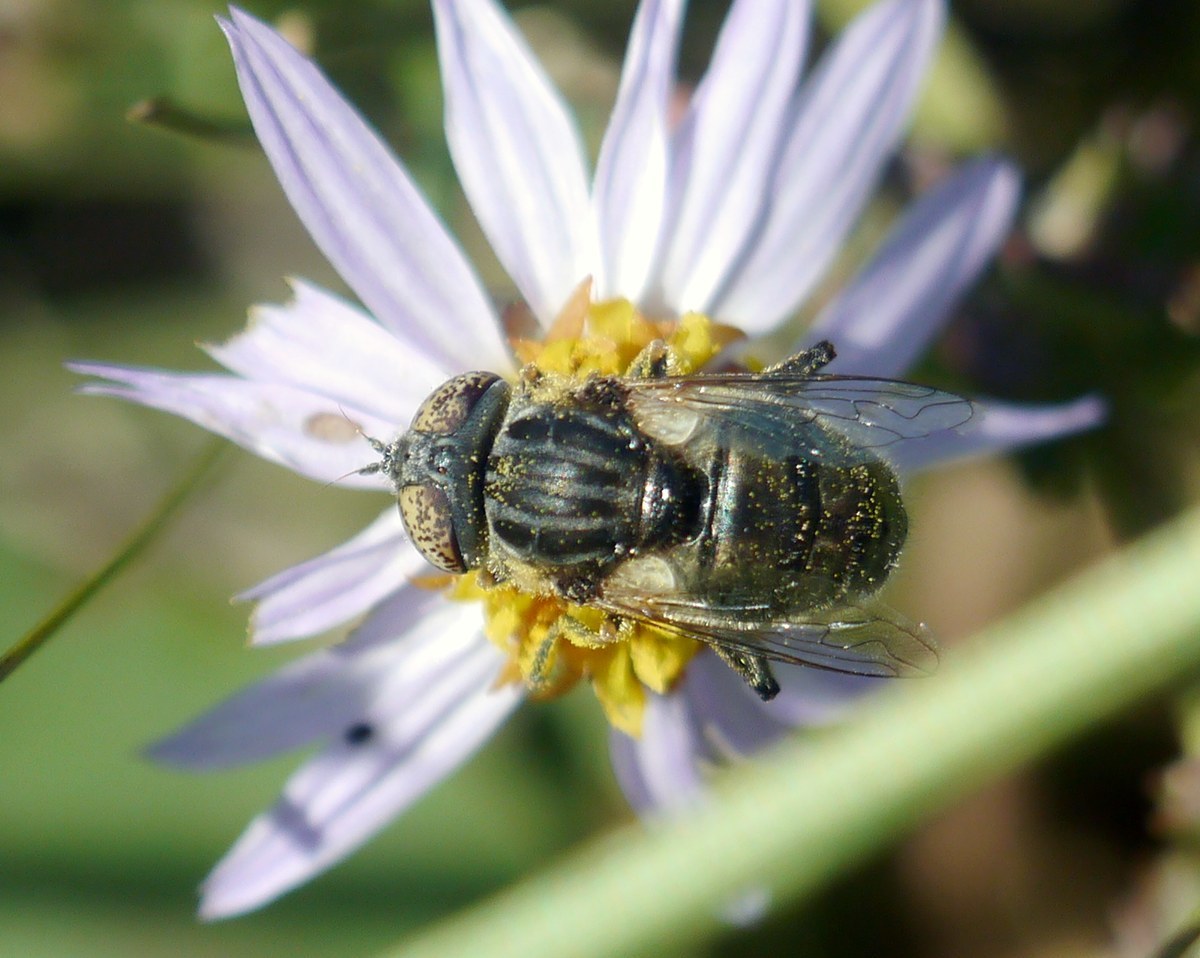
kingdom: Animalia
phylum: Arthropoda
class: Insecta
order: Diptera
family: Syrphidae
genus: Eristalinus
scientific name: Eristalinus sepulchralis
